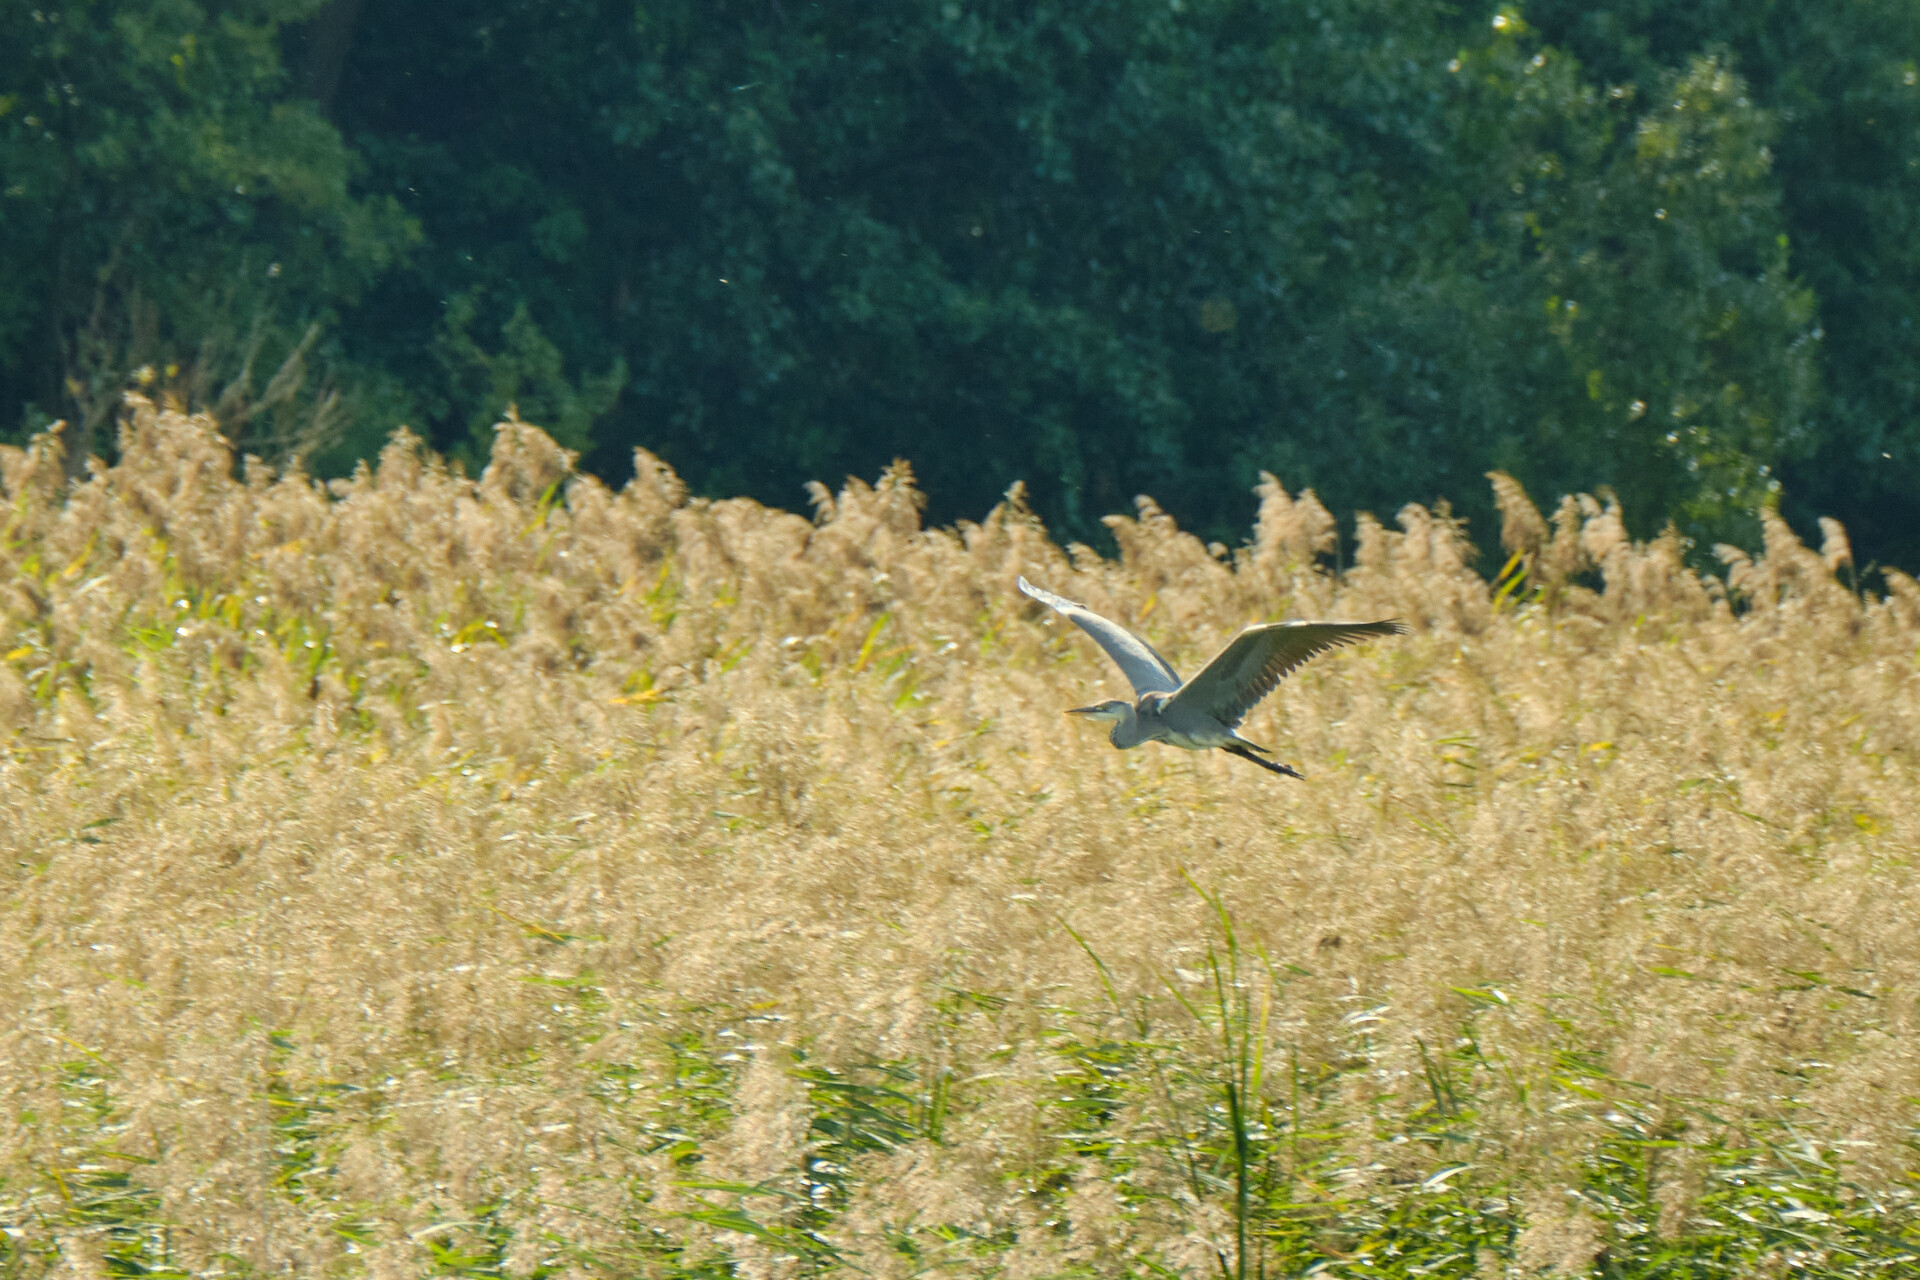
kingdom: Animalia
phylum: Chordata
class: Aves
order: Pelecaniformes
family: Ardeidae
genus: Ardea
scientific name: Ardea cinerea
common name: Grey heron
